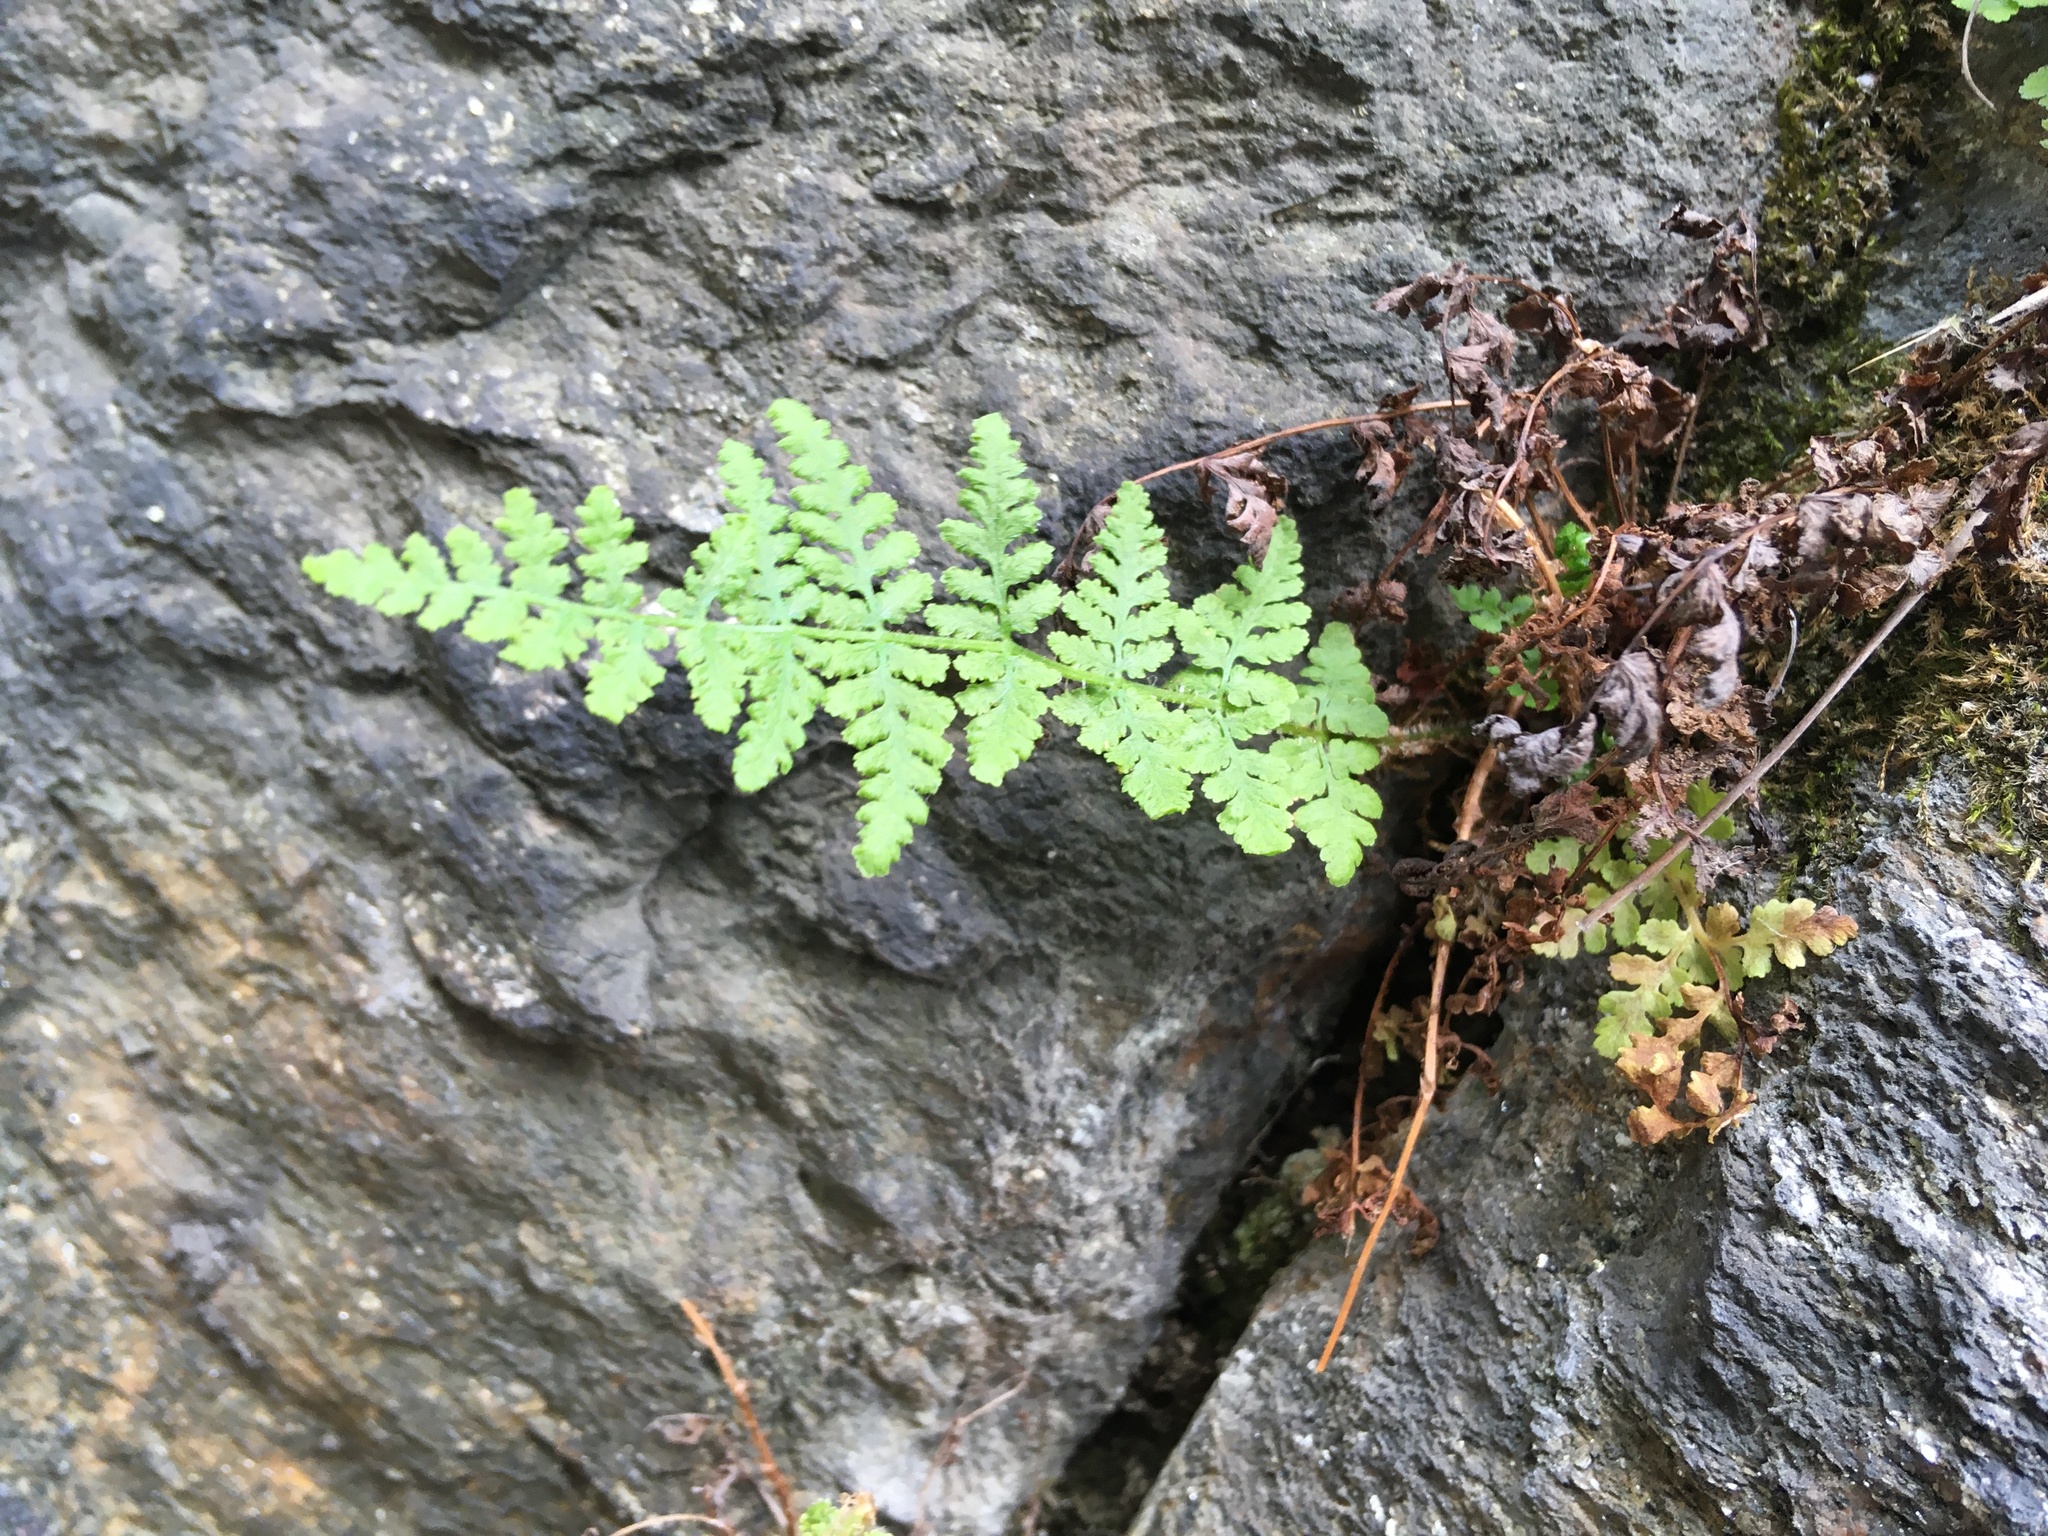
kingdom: Plantae
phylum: Tracheophyta
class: Polypodiopsida
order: Polypodiales
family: Woodsiaceae
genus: Physematium
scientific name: Physematium obtusum
